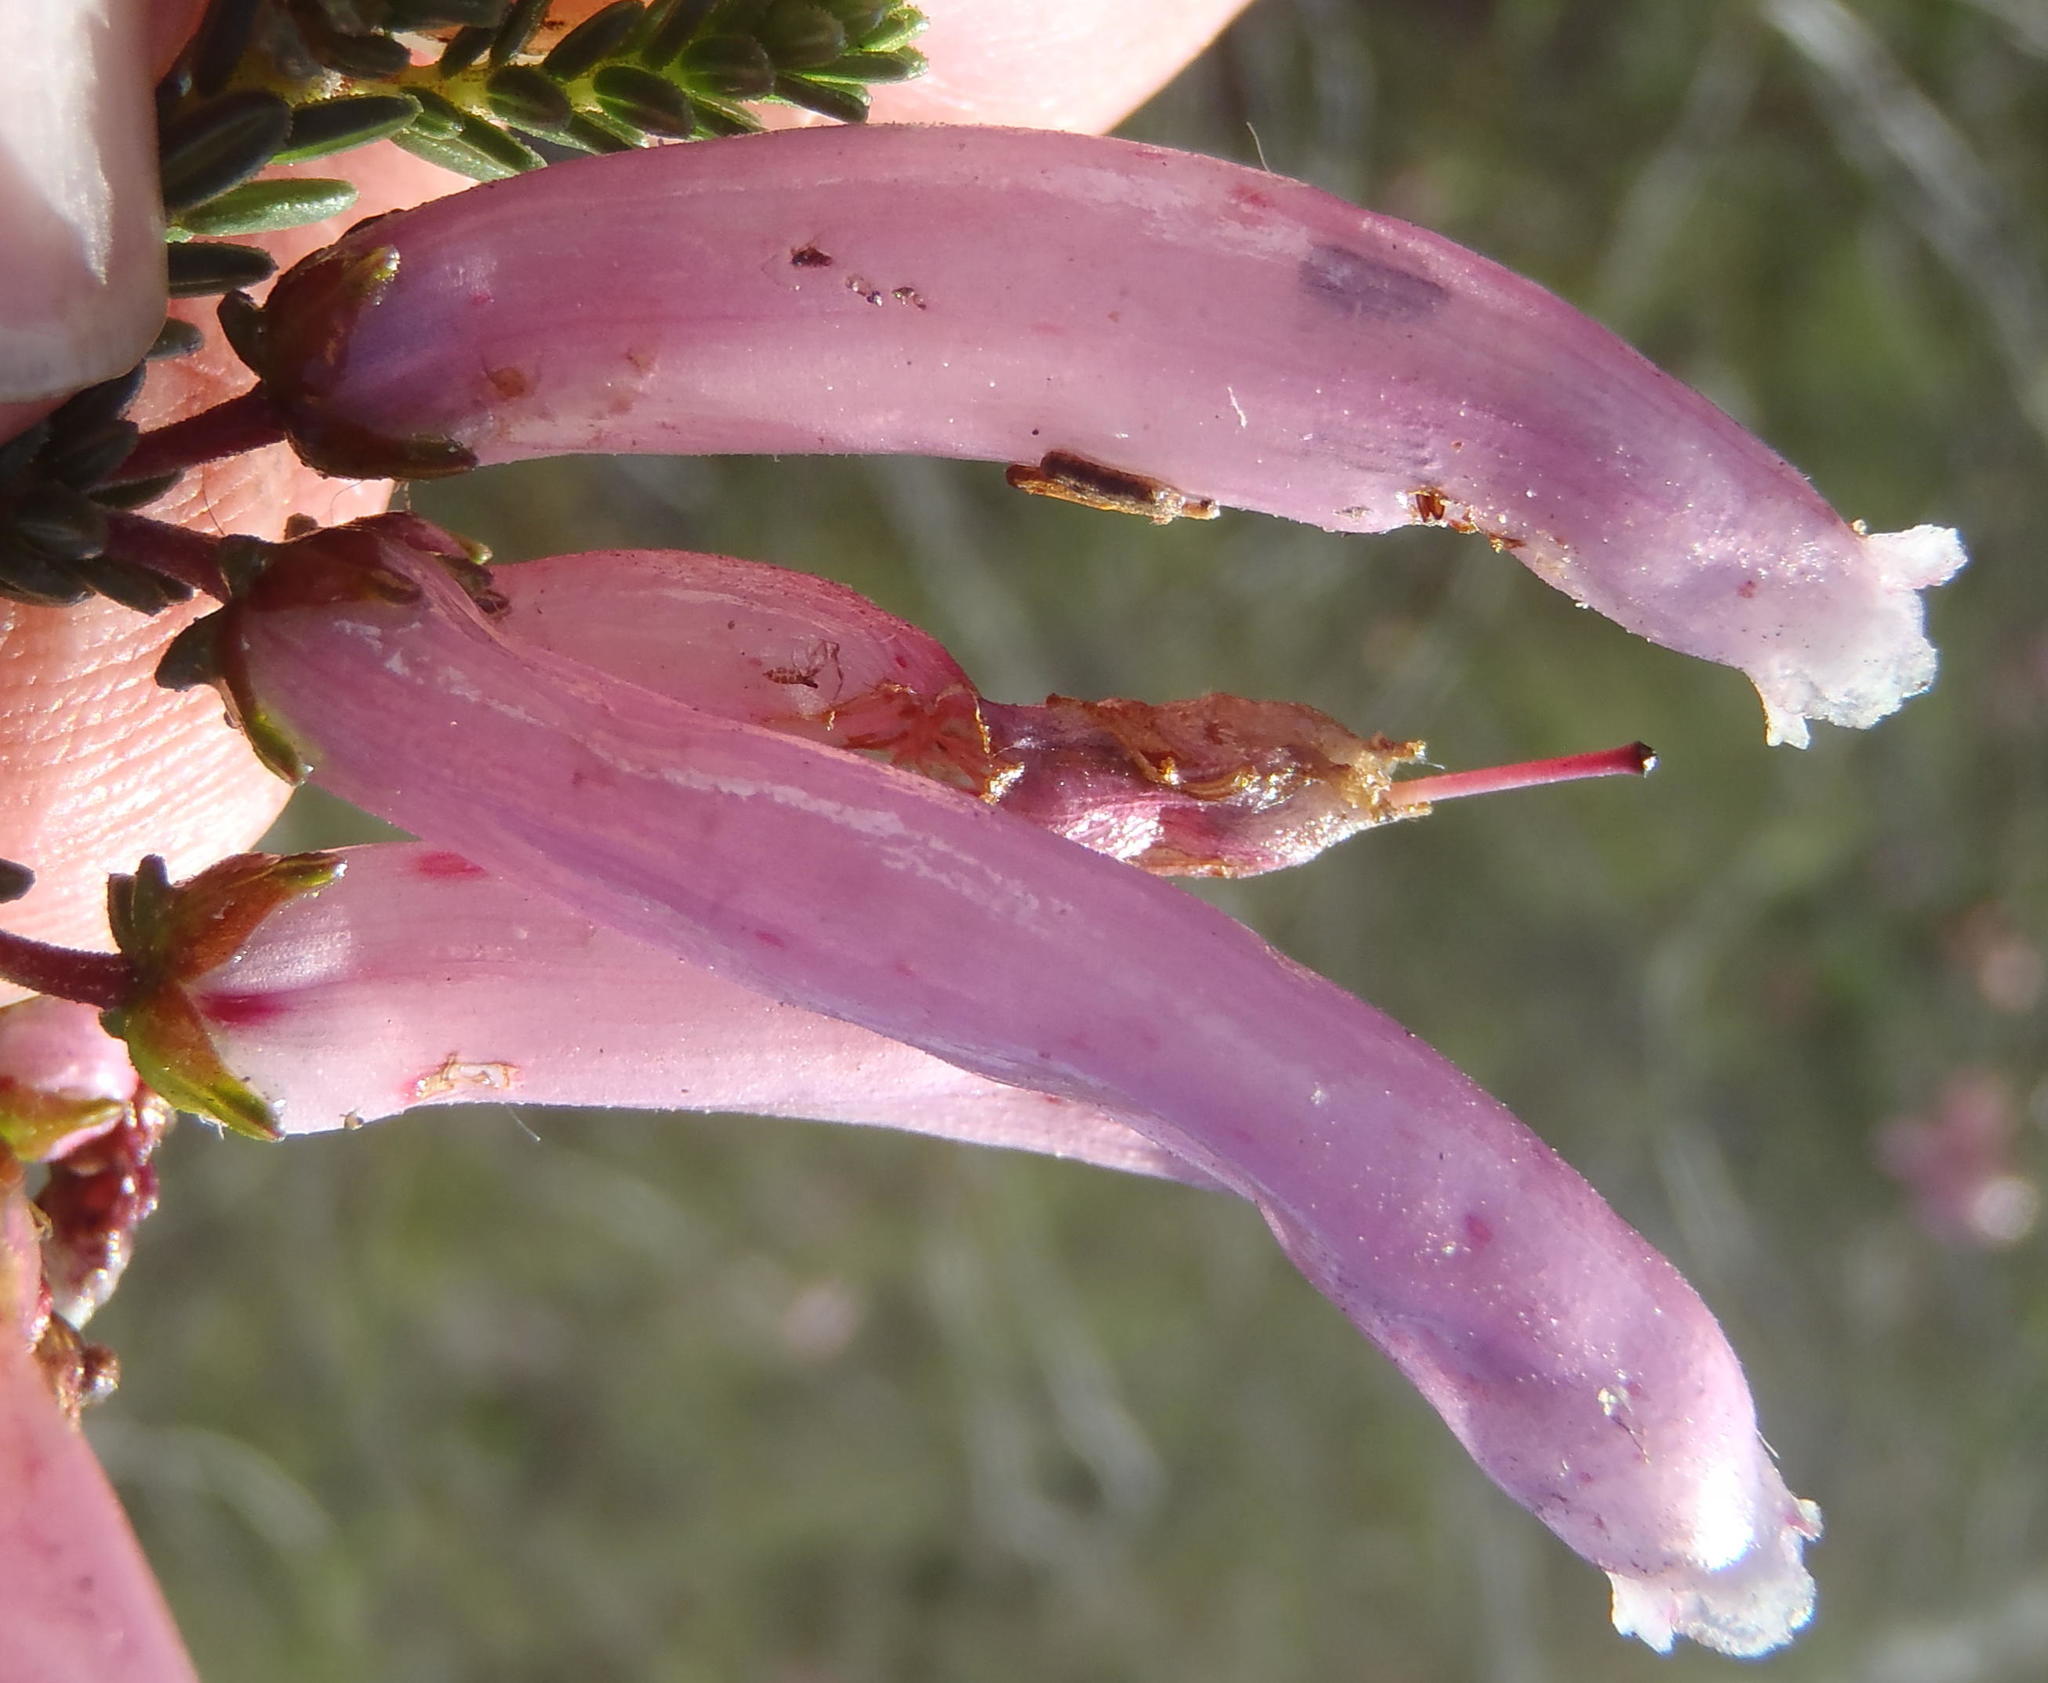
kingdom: Plantae
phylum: Tracheophyta
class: Magnoliopsida
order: Ericales
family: Ericaceae
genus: Erica
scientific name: Erica prolata
